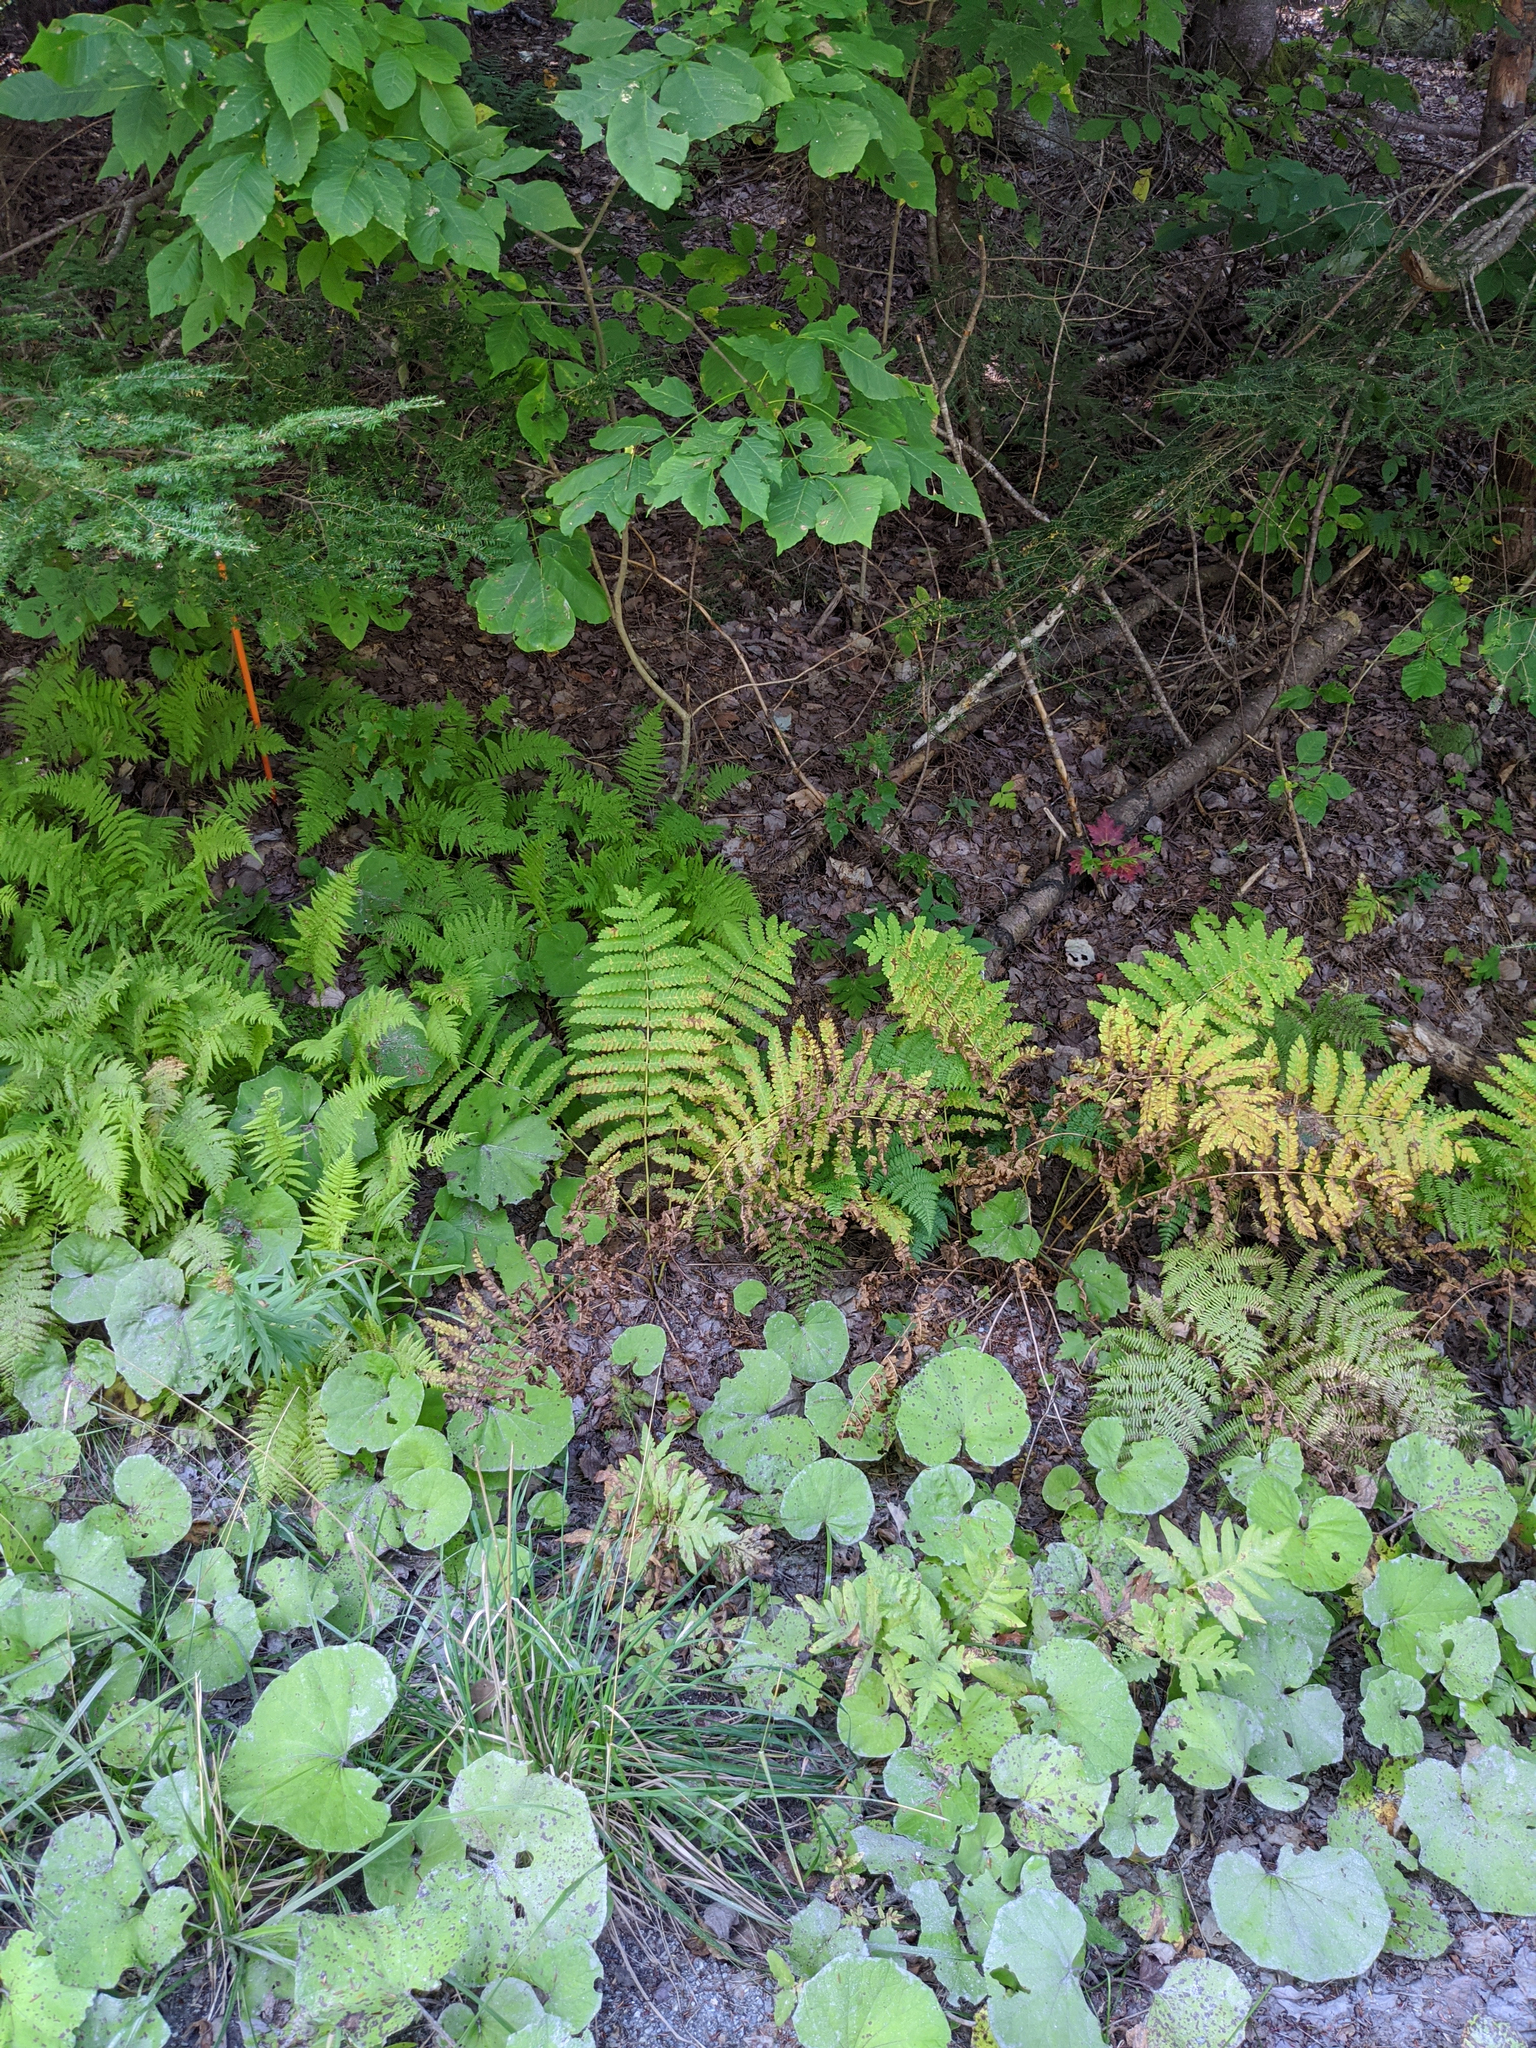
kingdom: Plantae
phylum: Tracheophyta
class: Magnoliopsida
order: Asterales
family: Asteraceae
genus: Tussilago
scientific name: Tussilago farfara
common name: Coltsfoot
